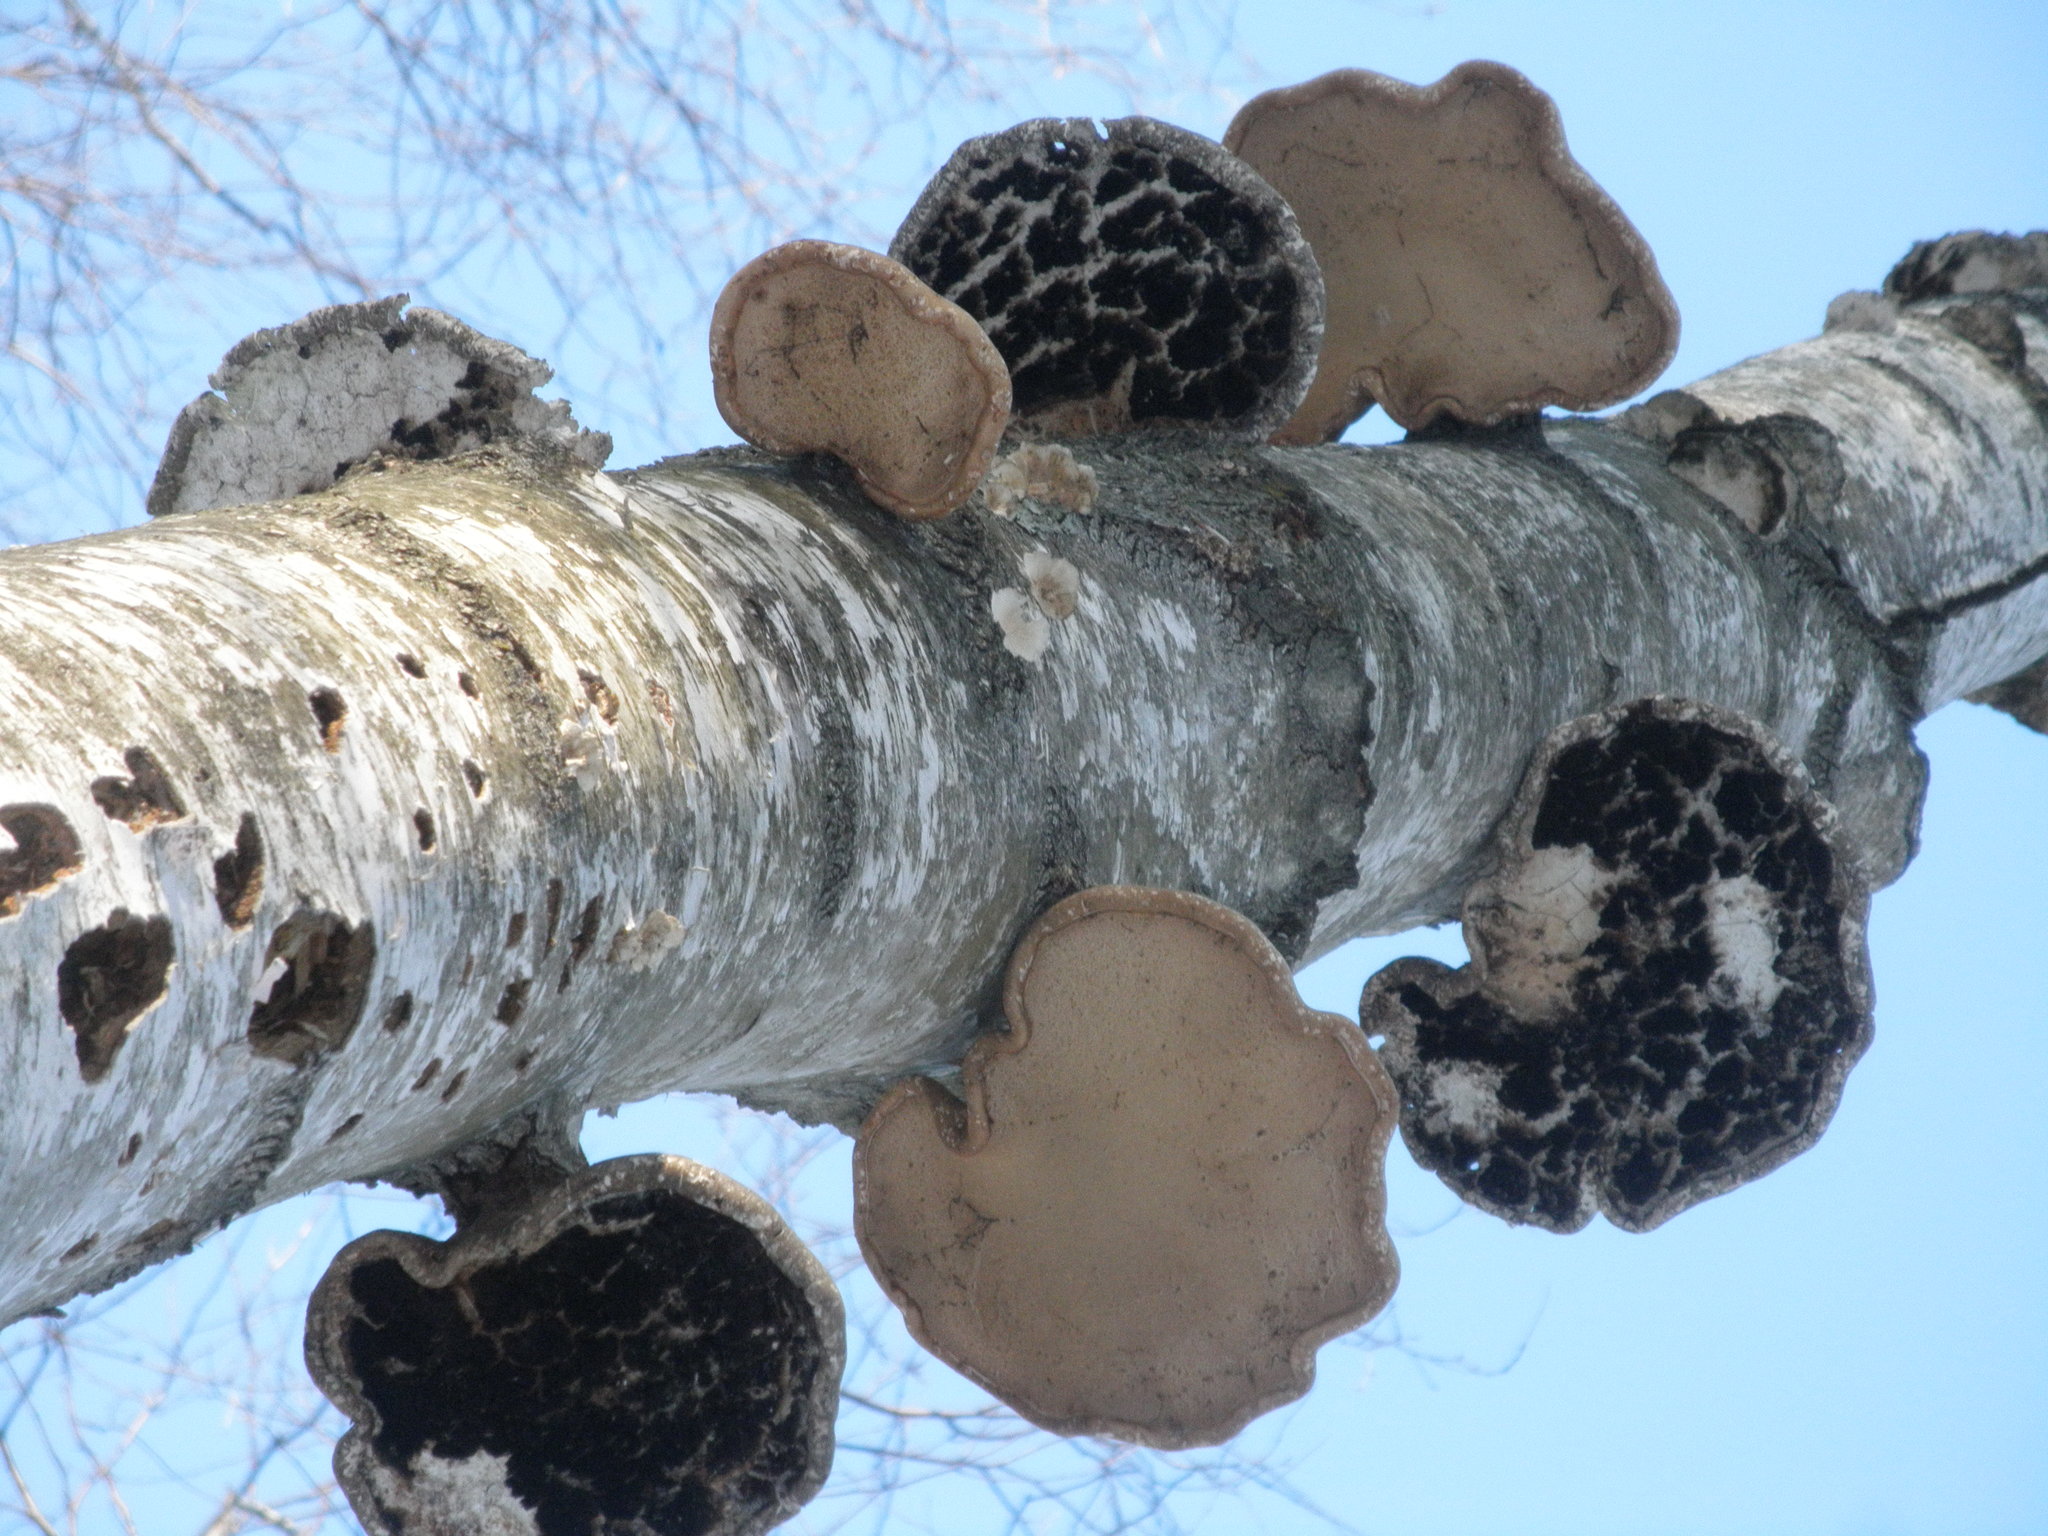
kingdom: Fungi
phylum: Basidiomycota
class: Agaricomycetes
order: Polyporales
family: Fomitopsidaceae
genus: Fomitopsis
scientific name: Fomitopsis betulina
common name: Birch polypore
